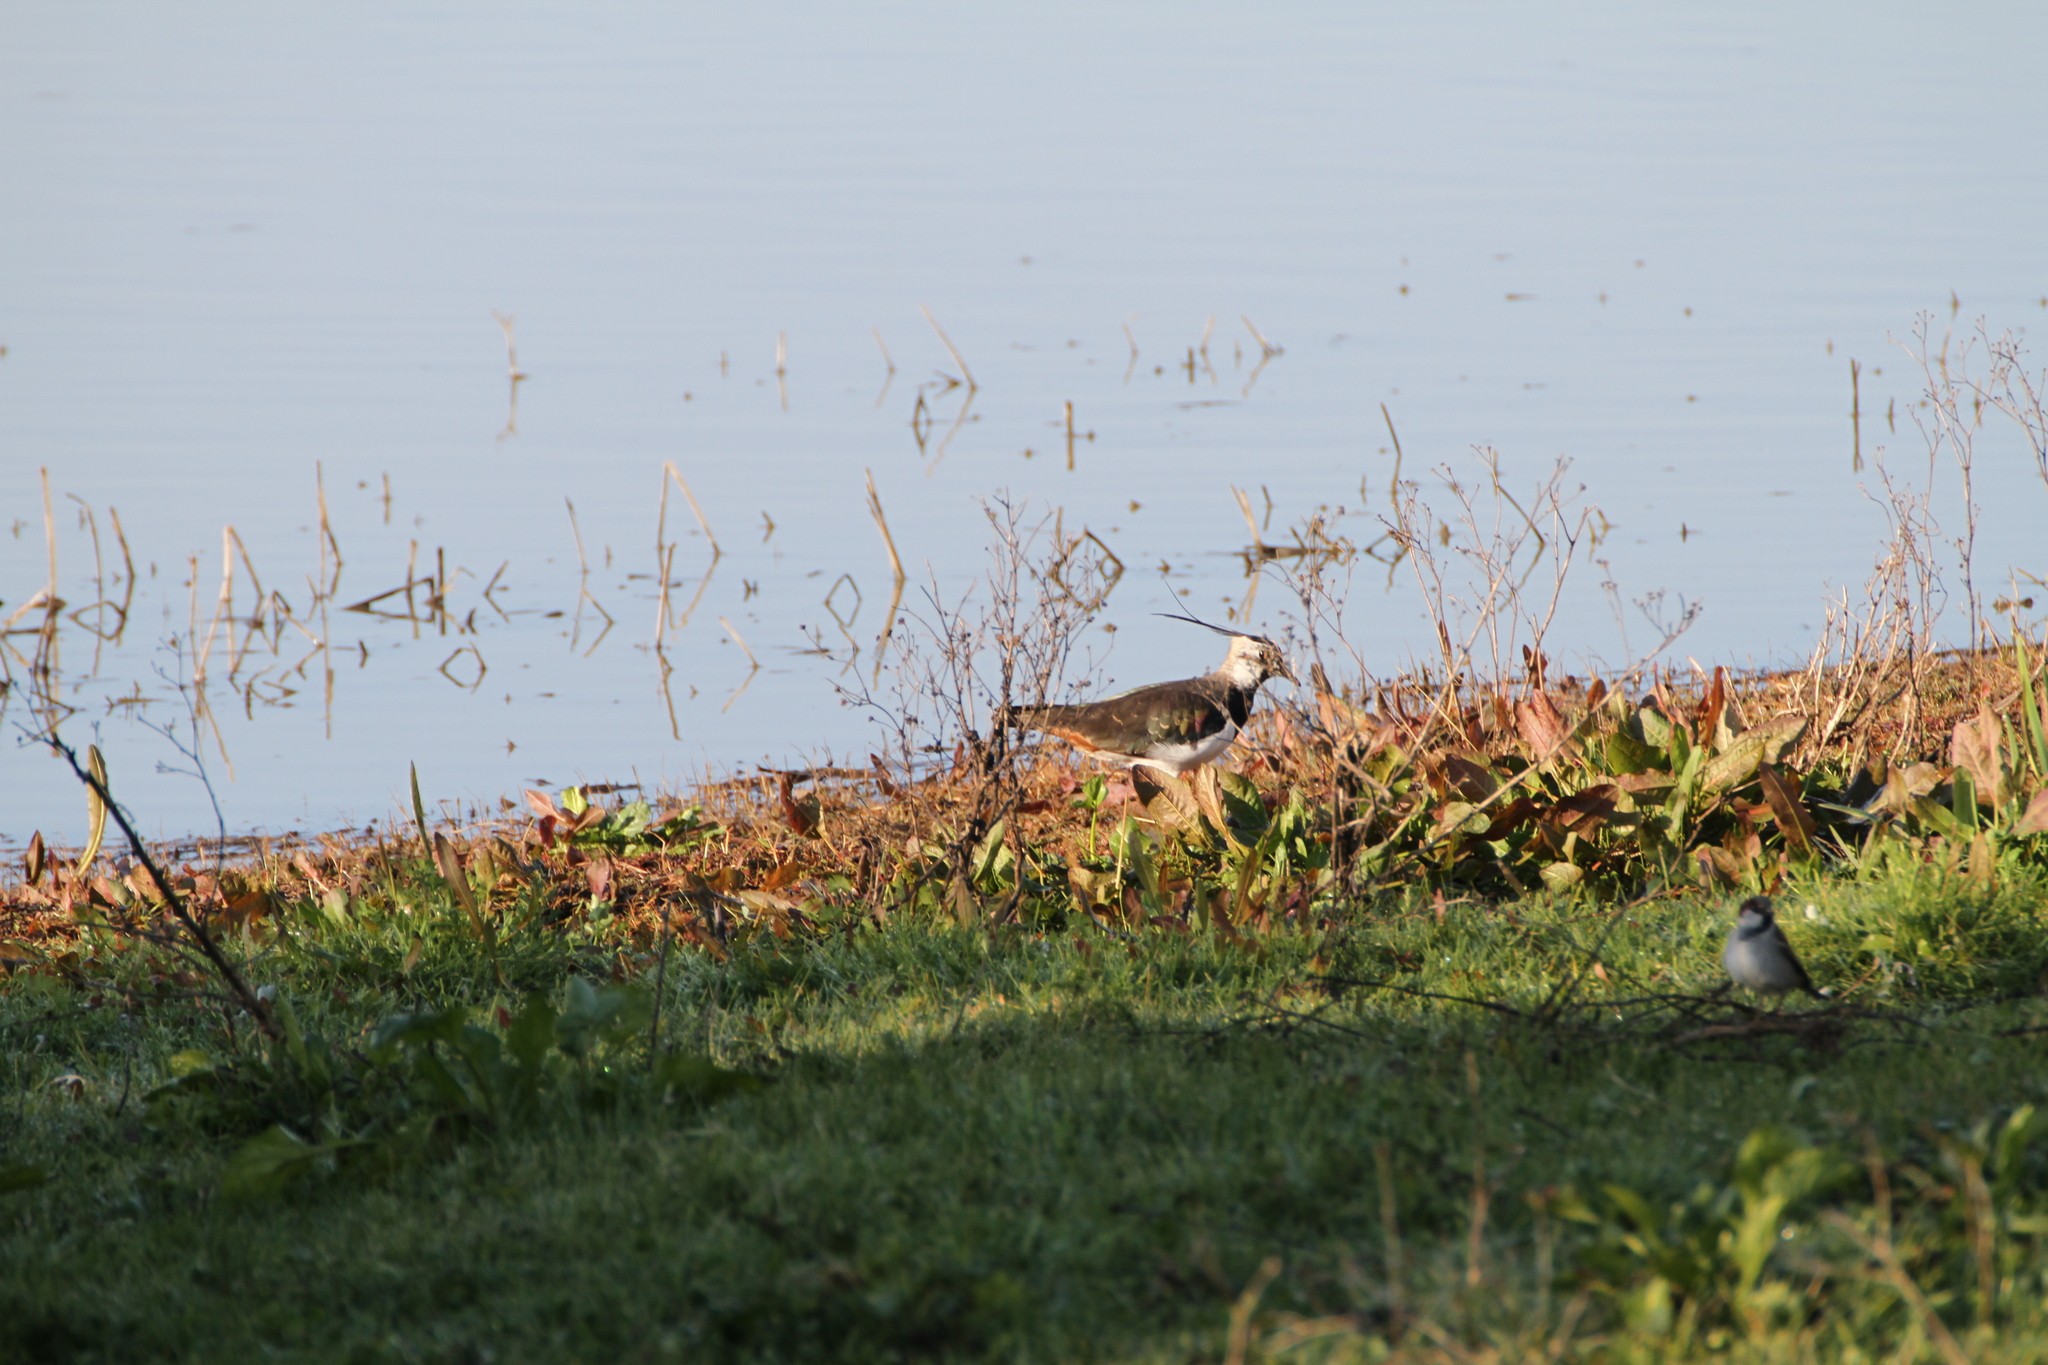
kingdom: Animalia
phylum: Chordata
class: Aves
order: Charadriiformes
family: Charadriidae
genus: Vanellus
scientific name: Vanellus vanellus
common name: Northern lapwing
